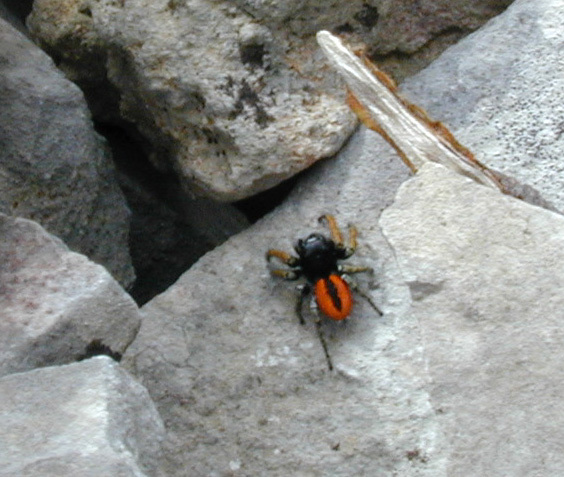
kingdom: Animalia
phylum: Arthropoda
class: Arachnida
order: Araneae
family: Salticidae
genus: Philaeus
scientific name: Philaeus chrysops
